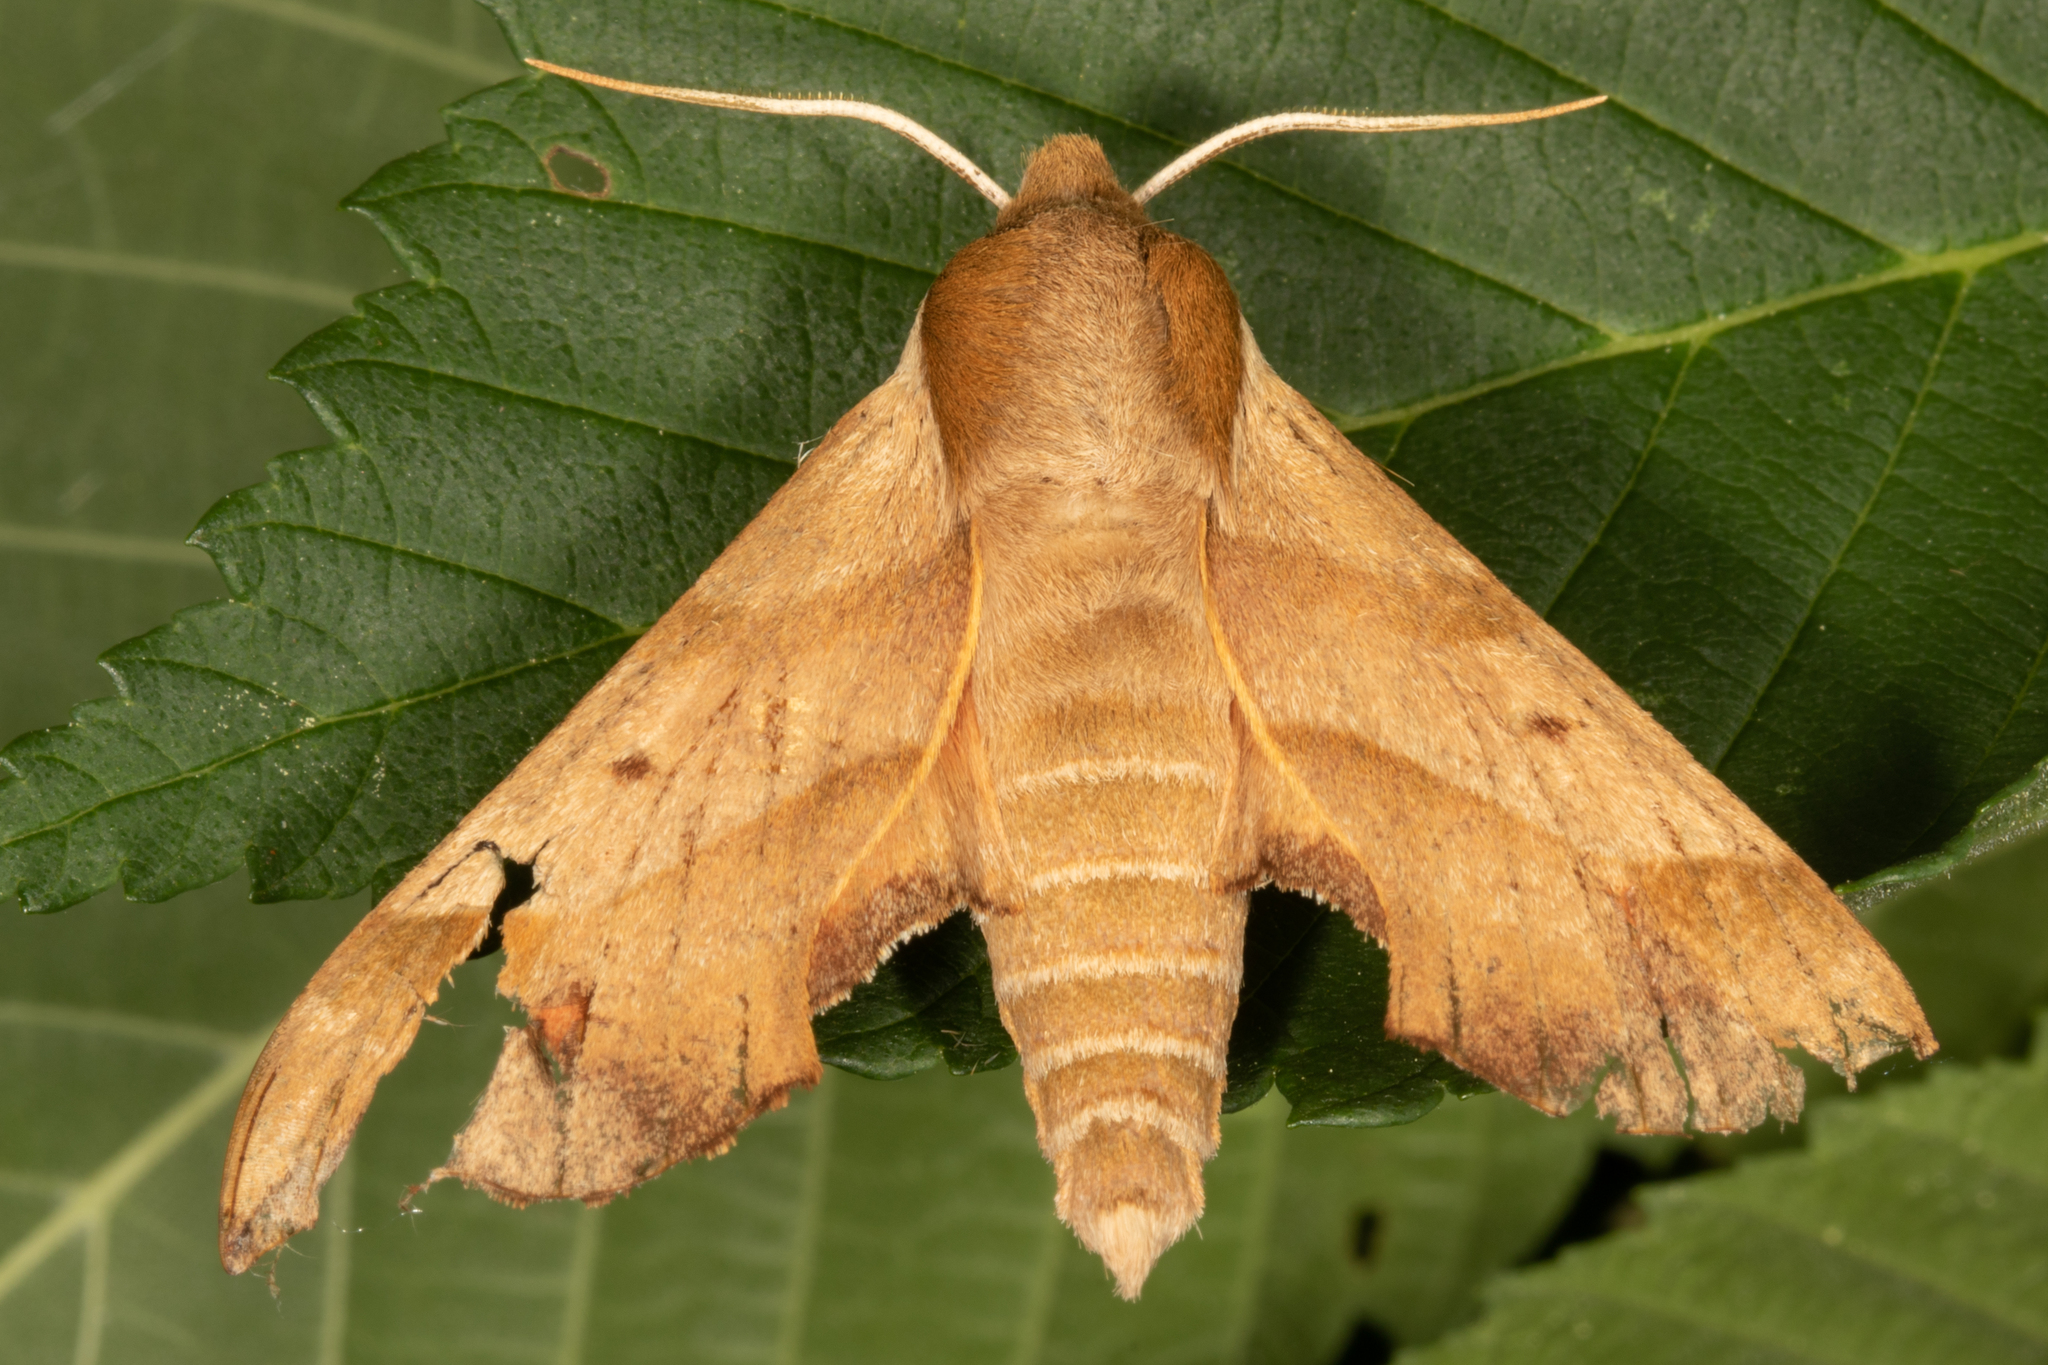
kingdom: Animalia
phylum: Arthropoda
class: Insecta
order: Lepidoptera
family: Sphingidae
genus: Darapsa
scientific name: Darapsa myron
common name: Hog sphinx
